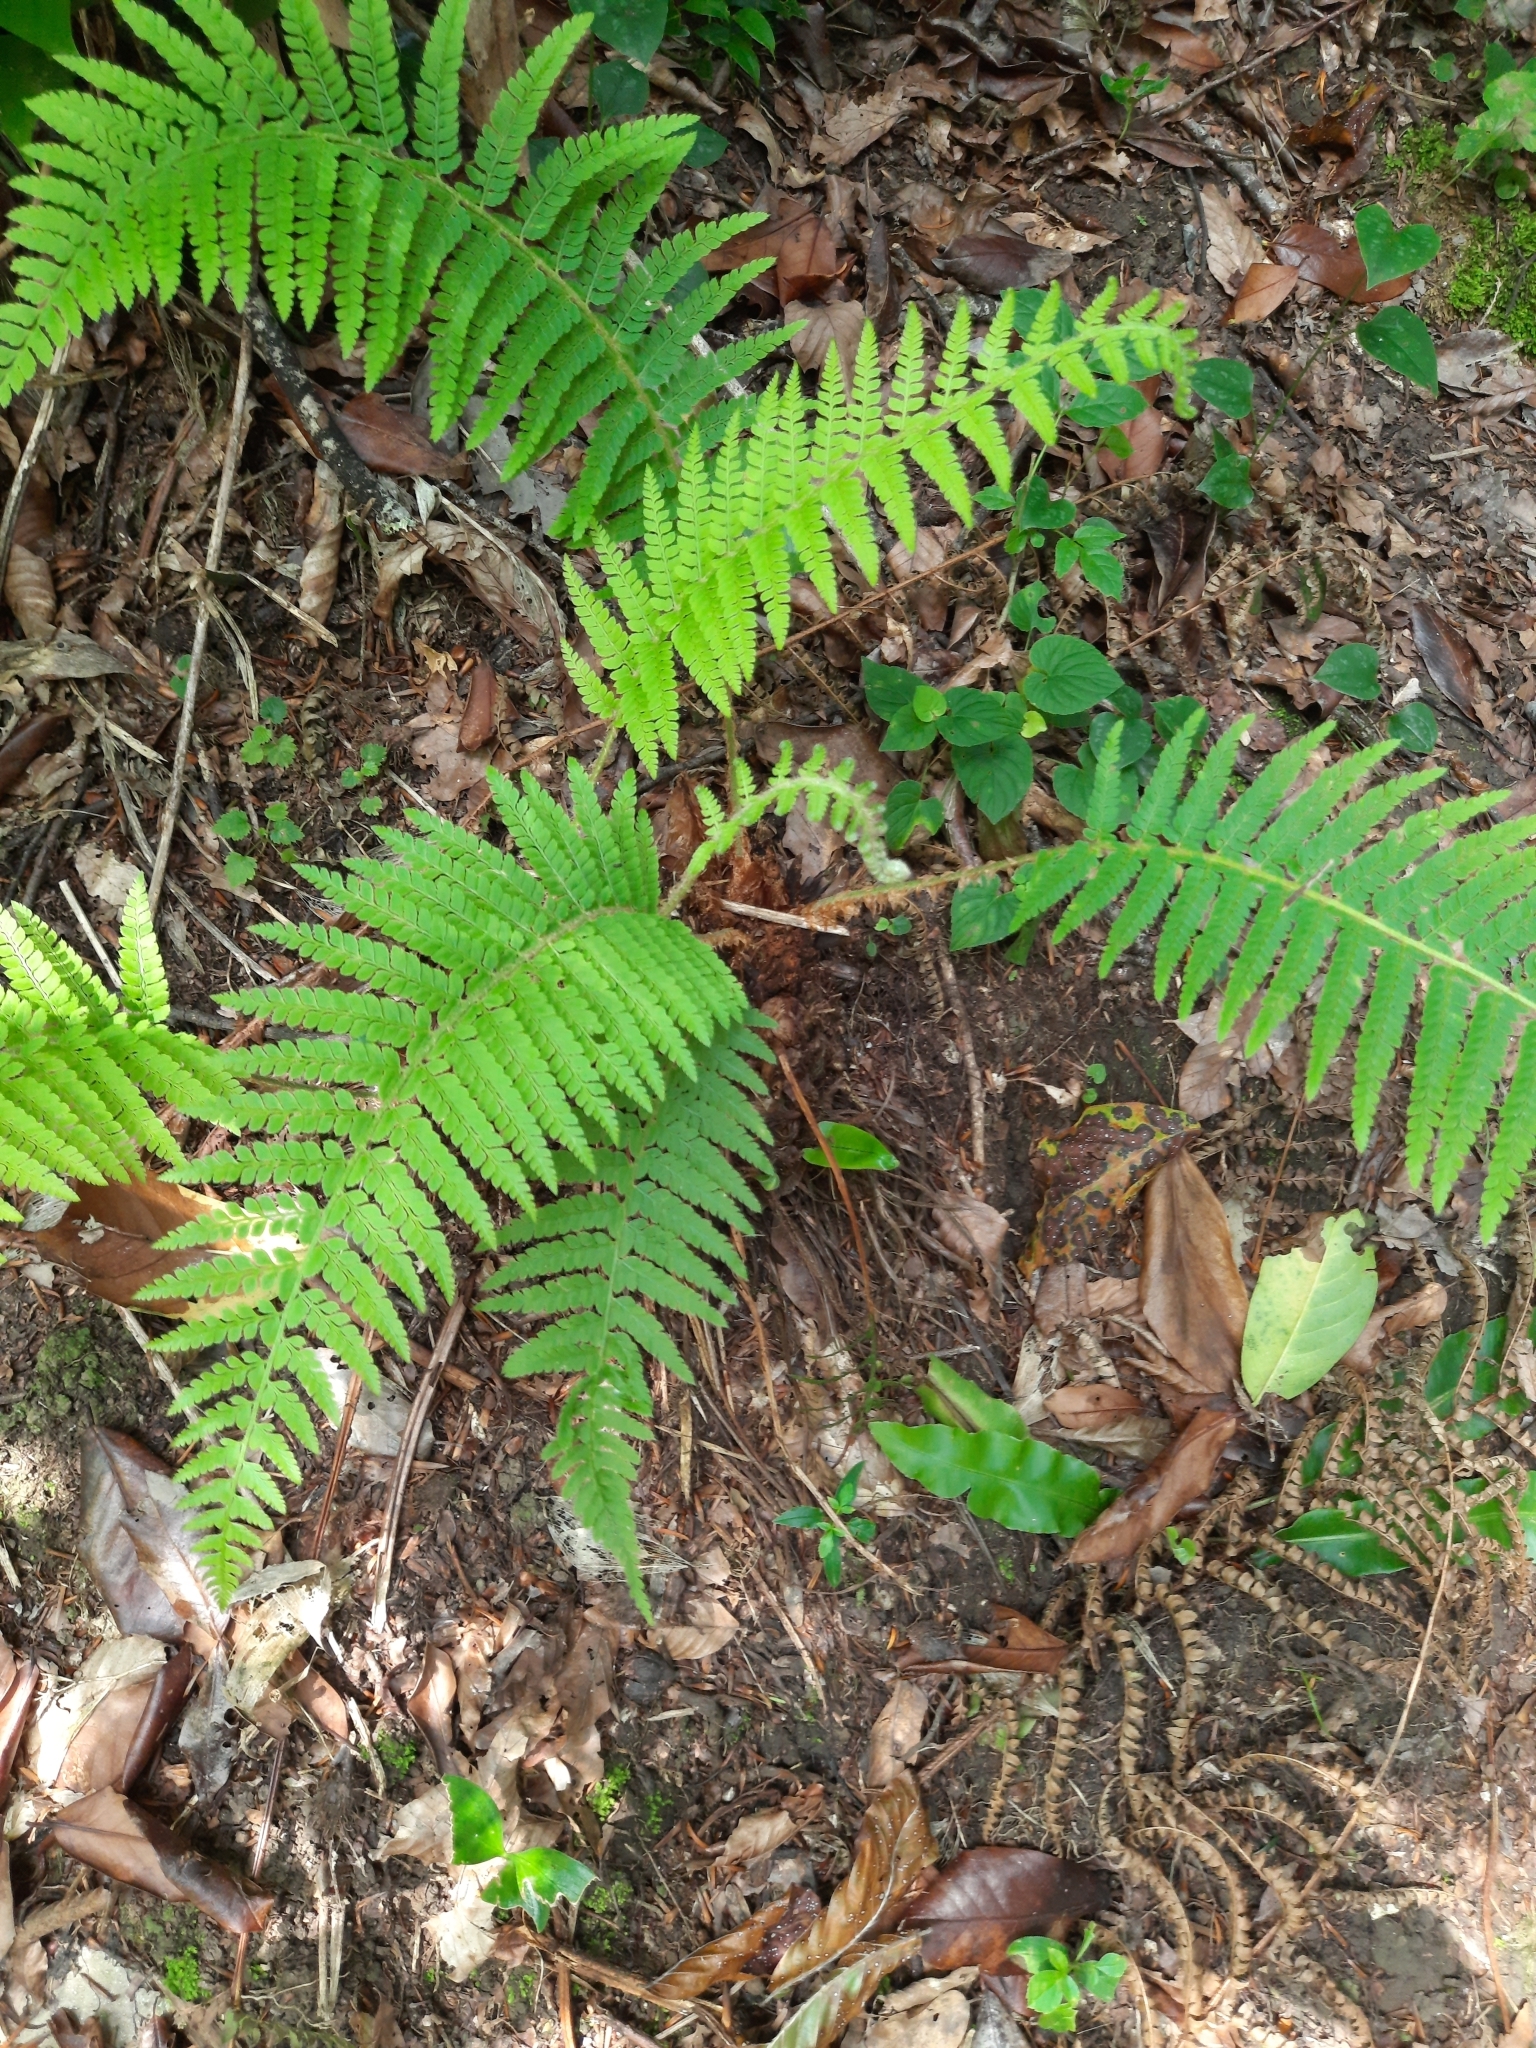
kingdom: Plantae
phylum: Tracheophyta
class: Polypodiopsida
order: Polypodiales
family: Dryopteridaceae
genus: Polystichum
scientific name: Polystichum setiferum
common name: Soft shield-fern
